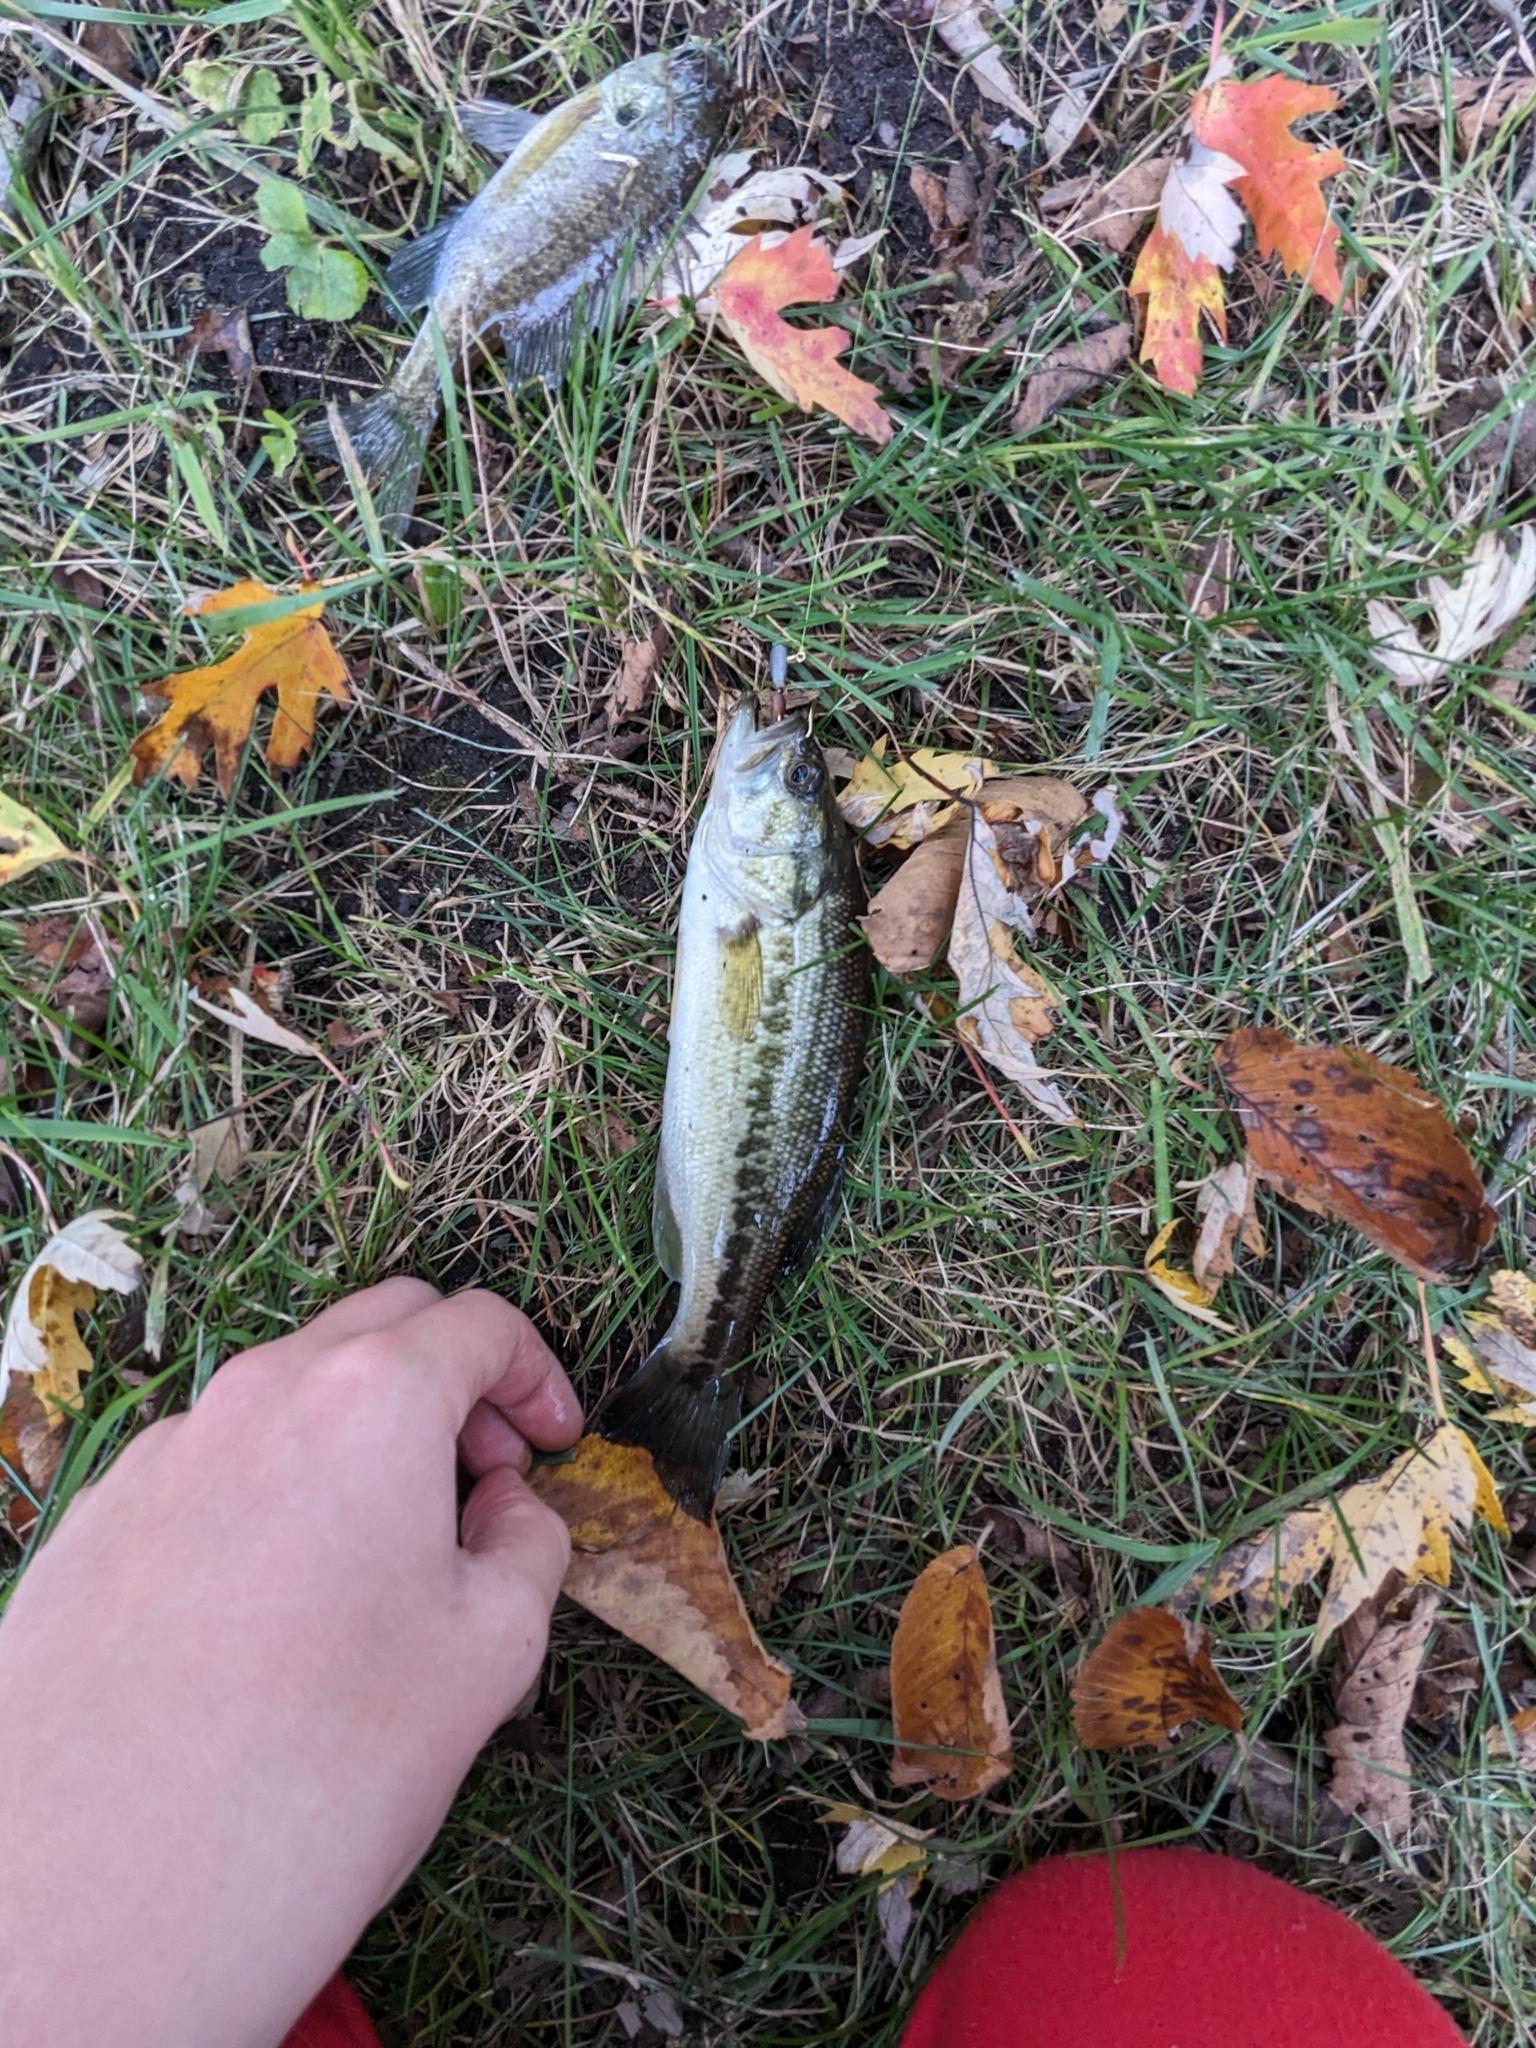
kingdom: Animalia
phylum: Chordata
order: Perciformes
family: Centrarchidae
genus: Micropterus
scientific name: Micropterus
